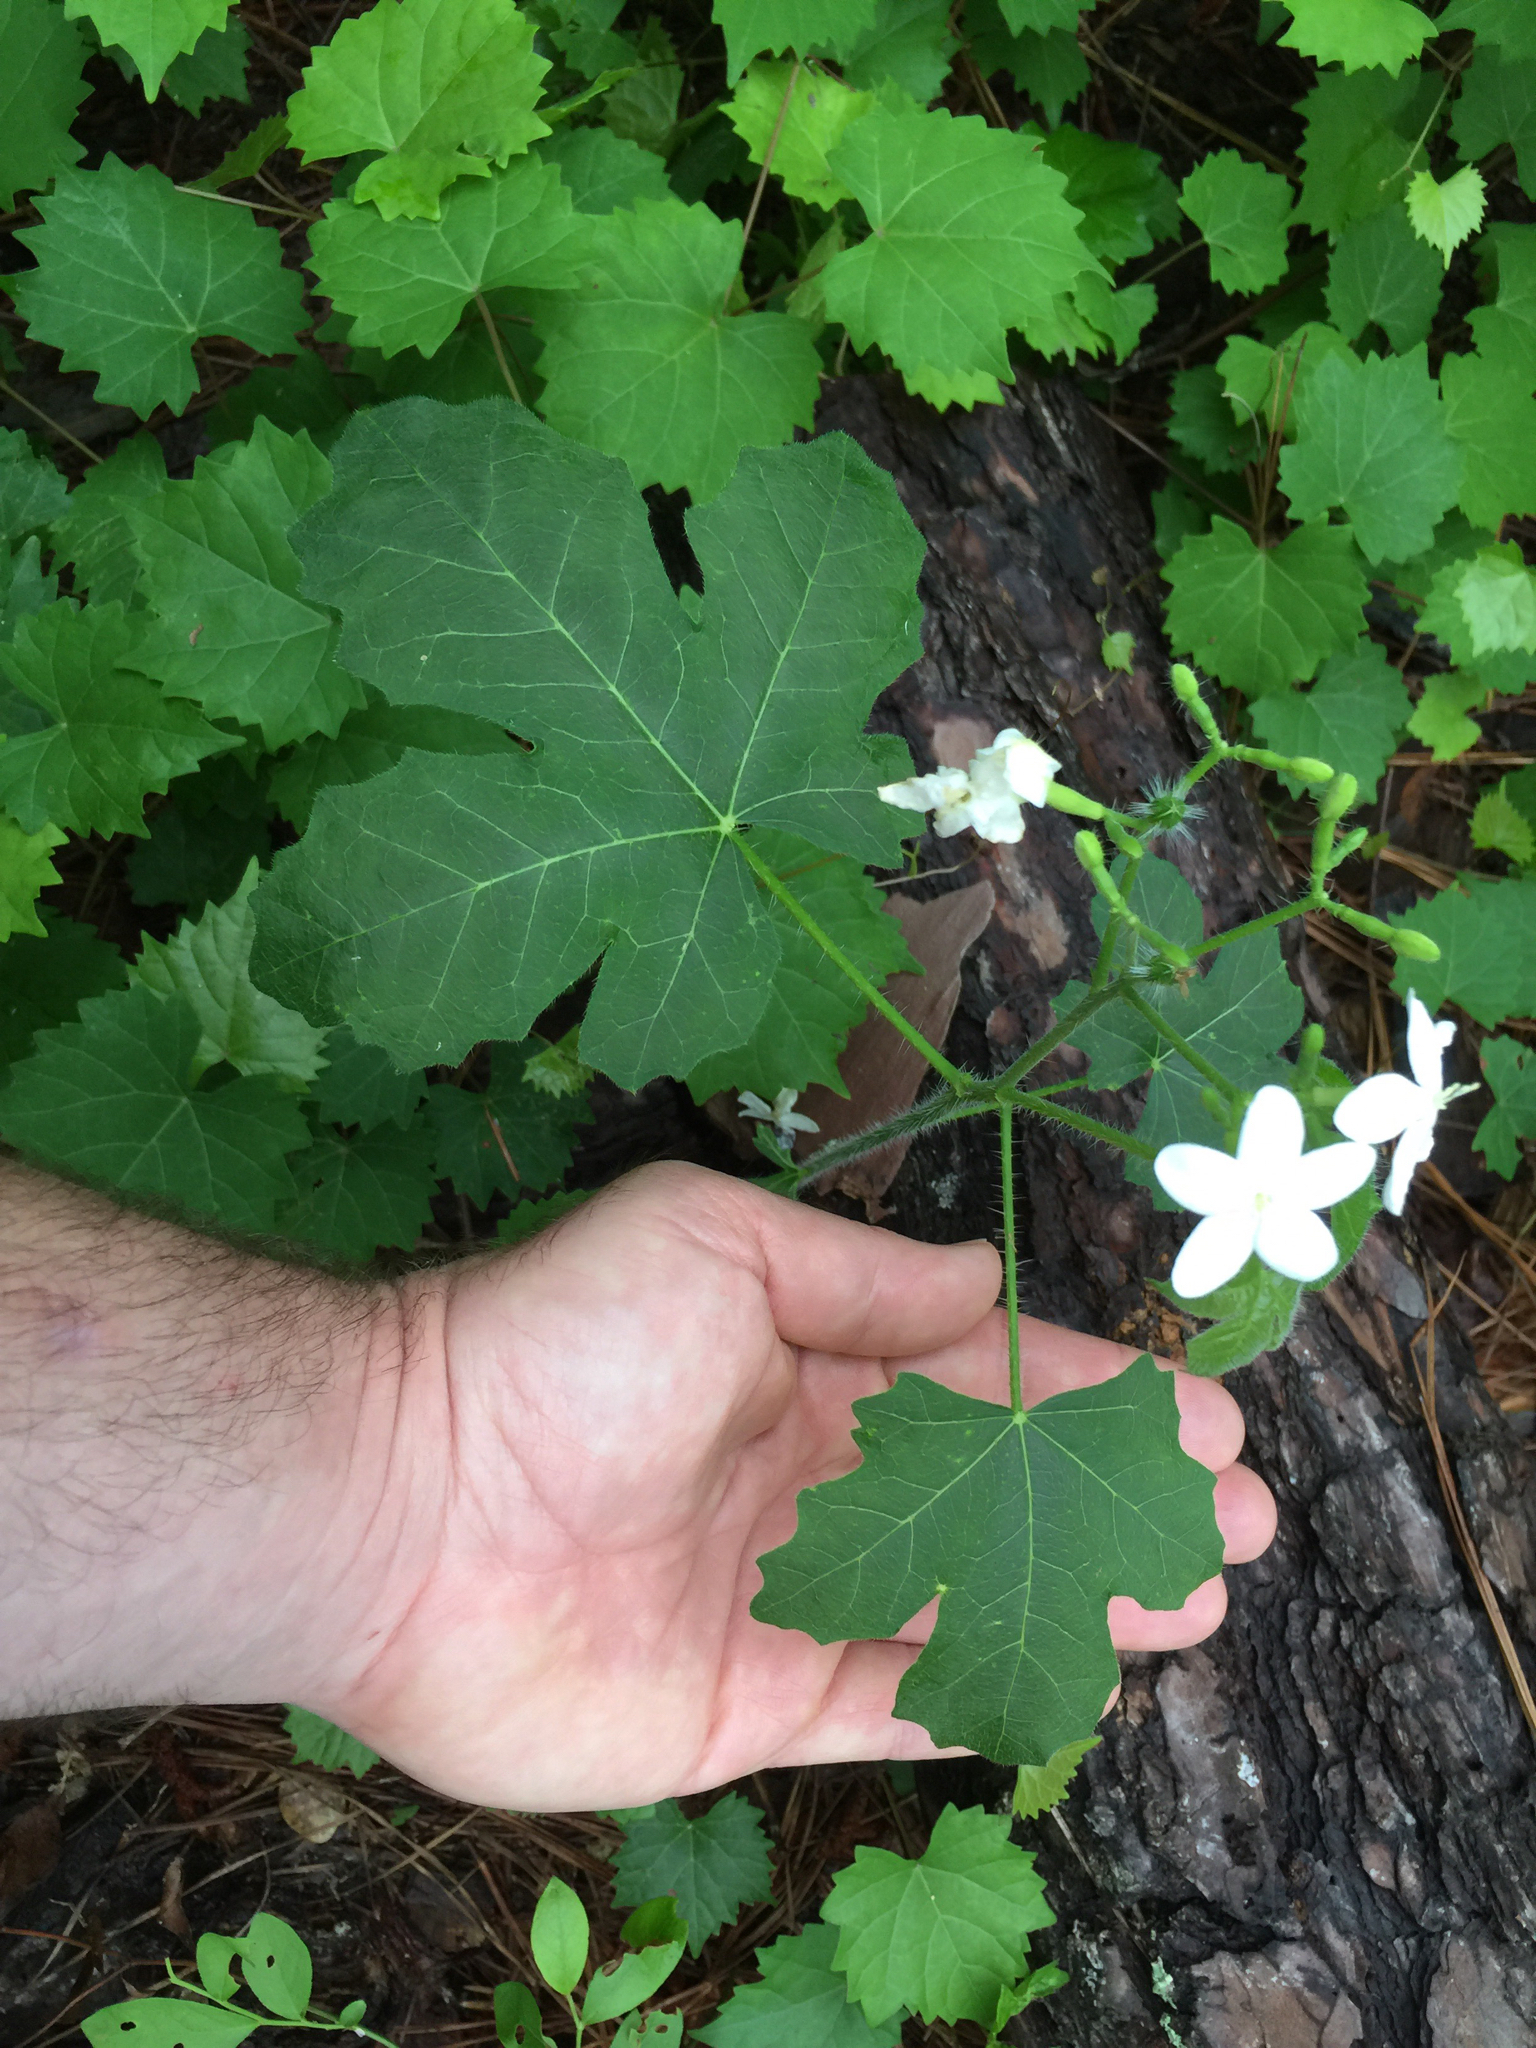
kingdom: Plantae
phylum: Tracheophyta
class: Magnoliopsida
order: Malpighiales
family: Euphorbiaceae
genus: Cnidoscolus
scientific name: Cnidoscolus stimulosus
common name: Bull-nettle
